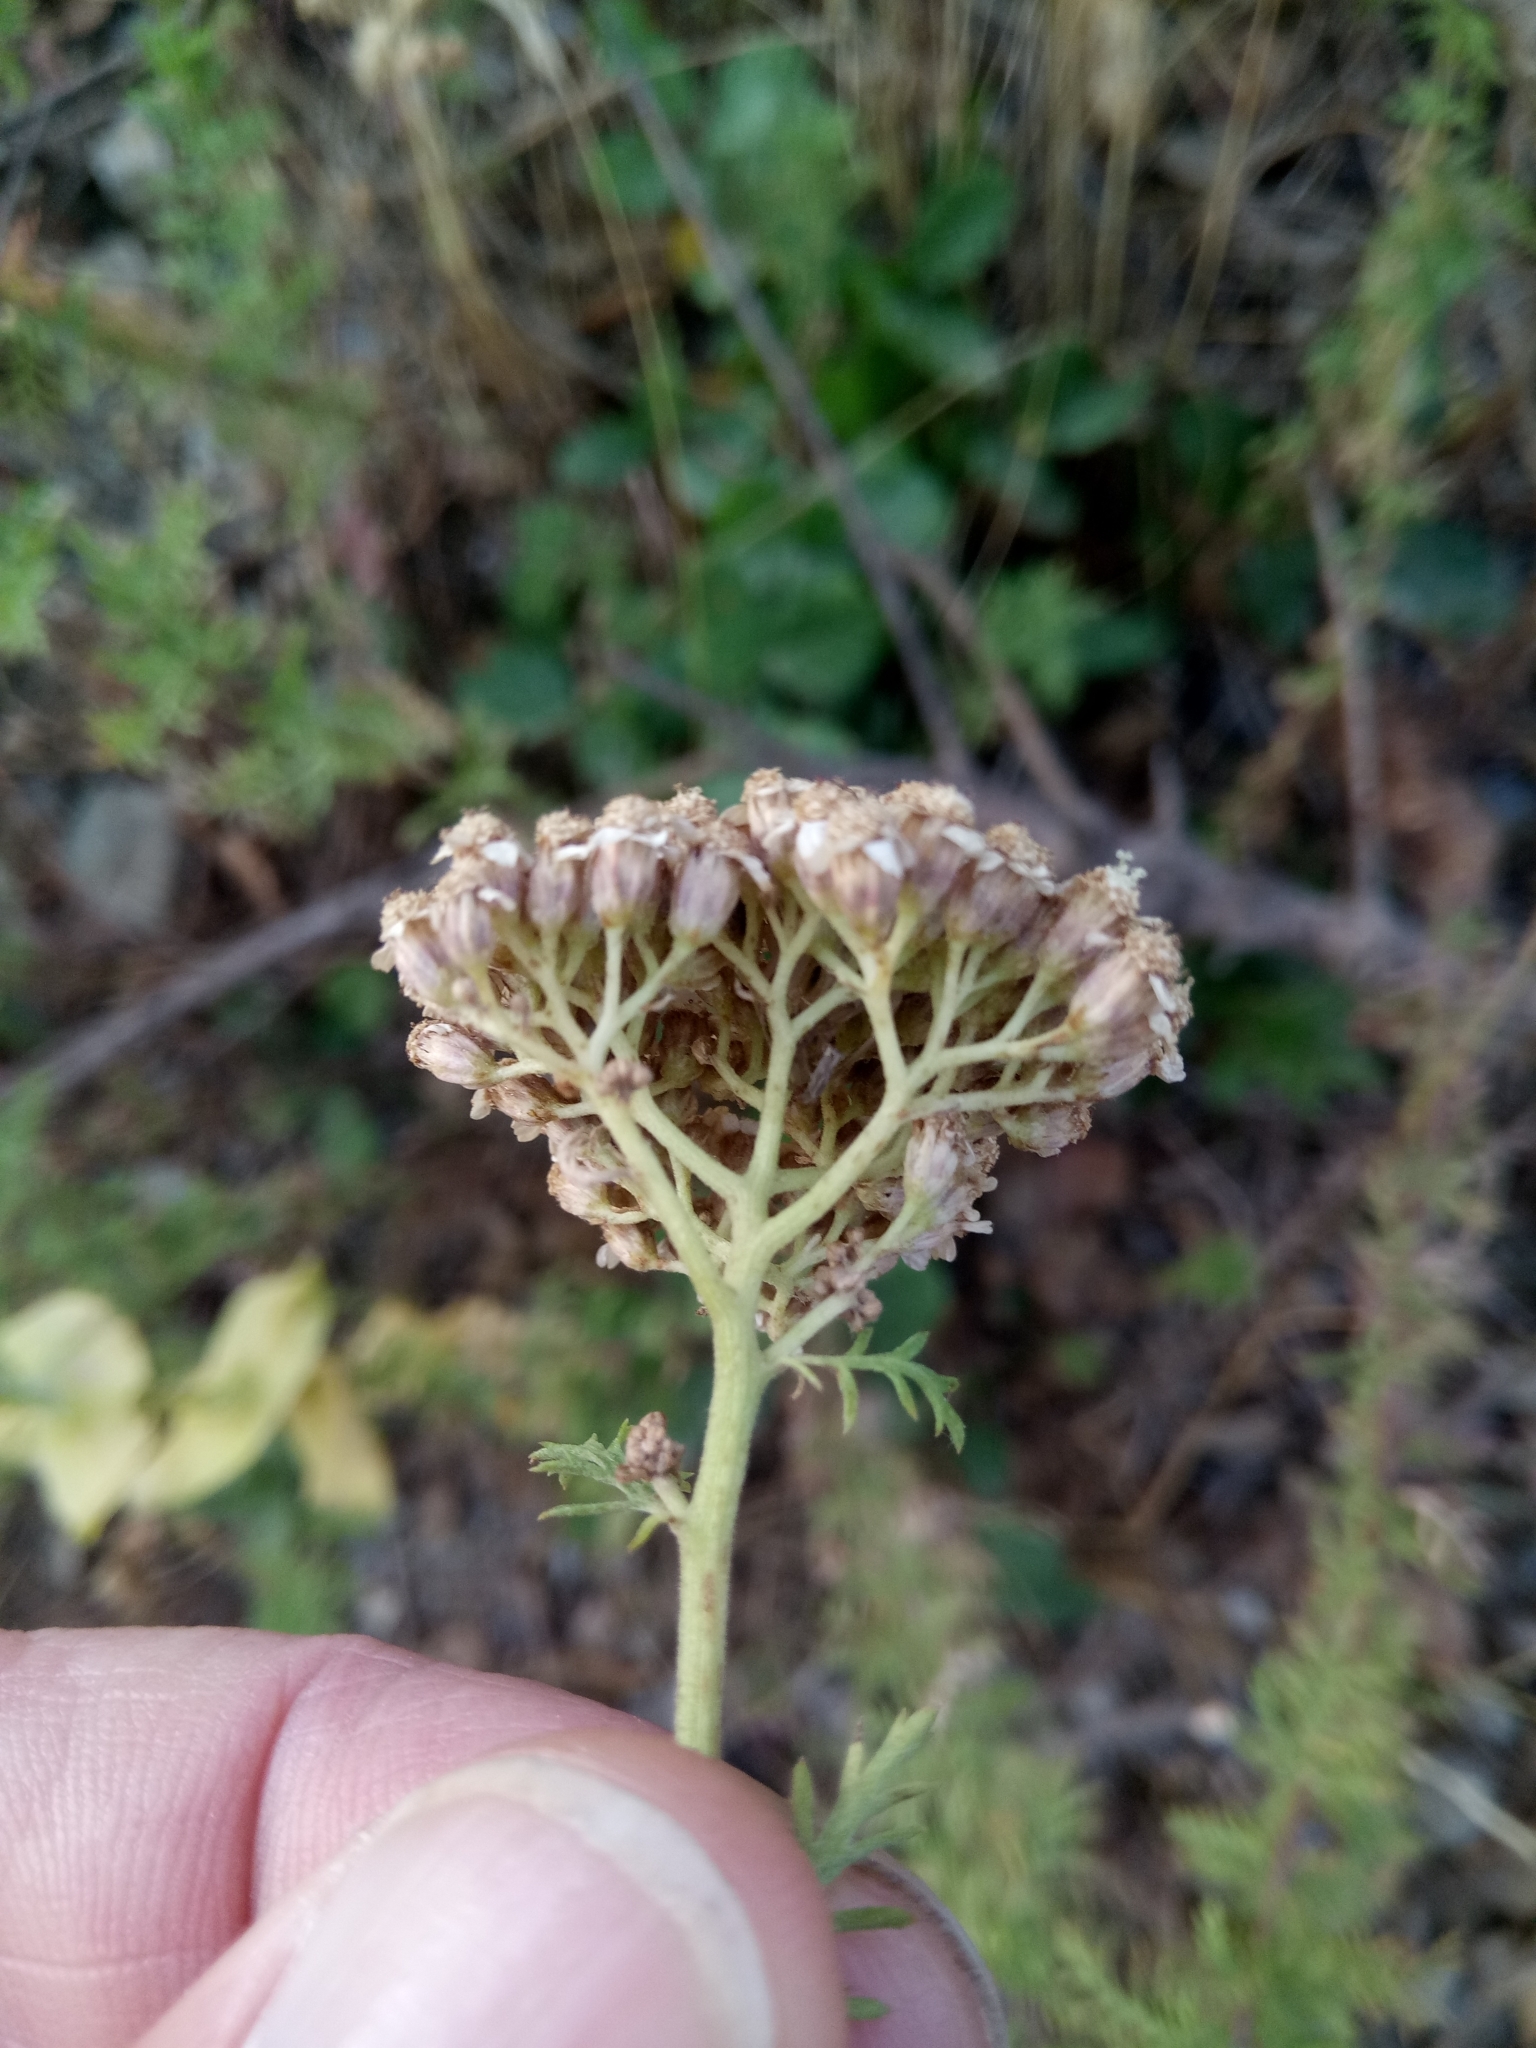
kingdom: Plantae
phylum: Tracheophyta
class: Magnoliopsida
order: Asterales
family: Asteraceae
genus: Achillea
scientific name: Achillea ligustica
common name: Southern yarrow
